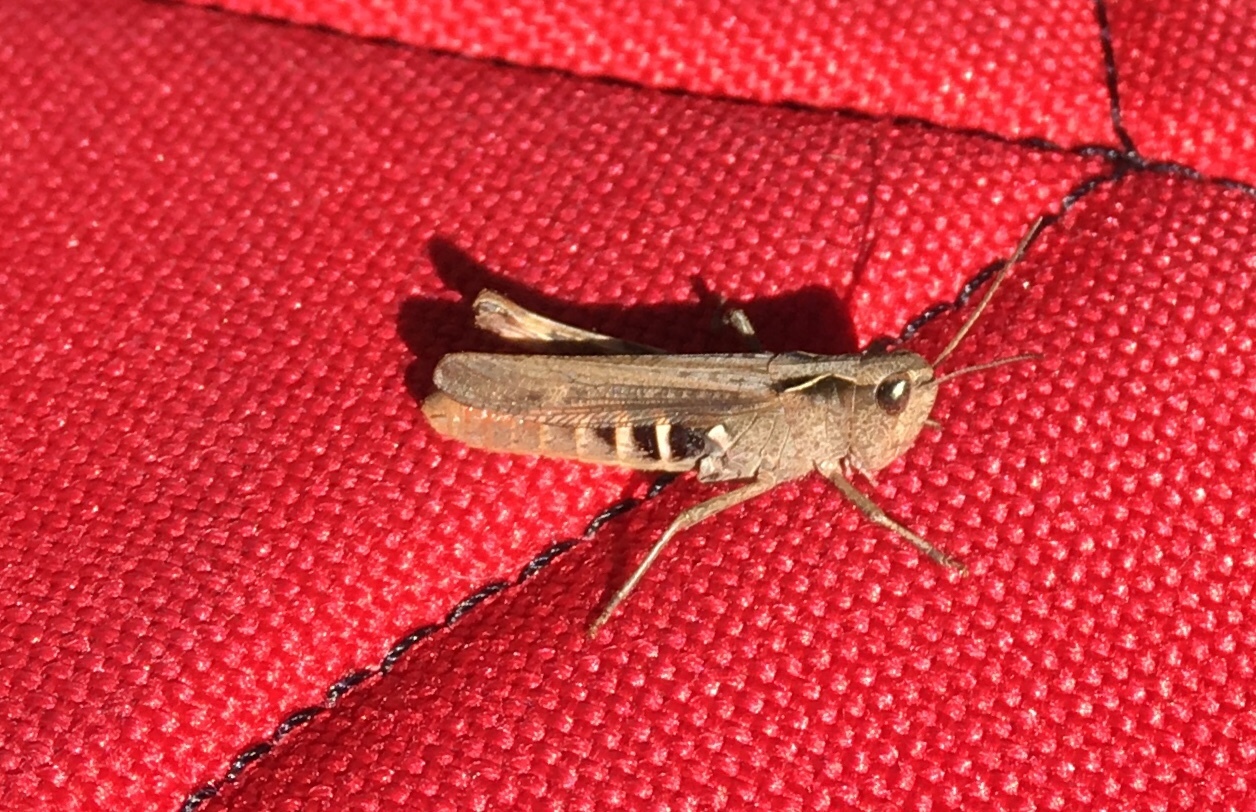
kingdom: Animalia
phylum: Arthropoda
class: Insecta
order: Orthoptera
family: Acrididae
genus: Chorthippus
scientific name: Chorthippus vagans
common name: Heath grasshopper
